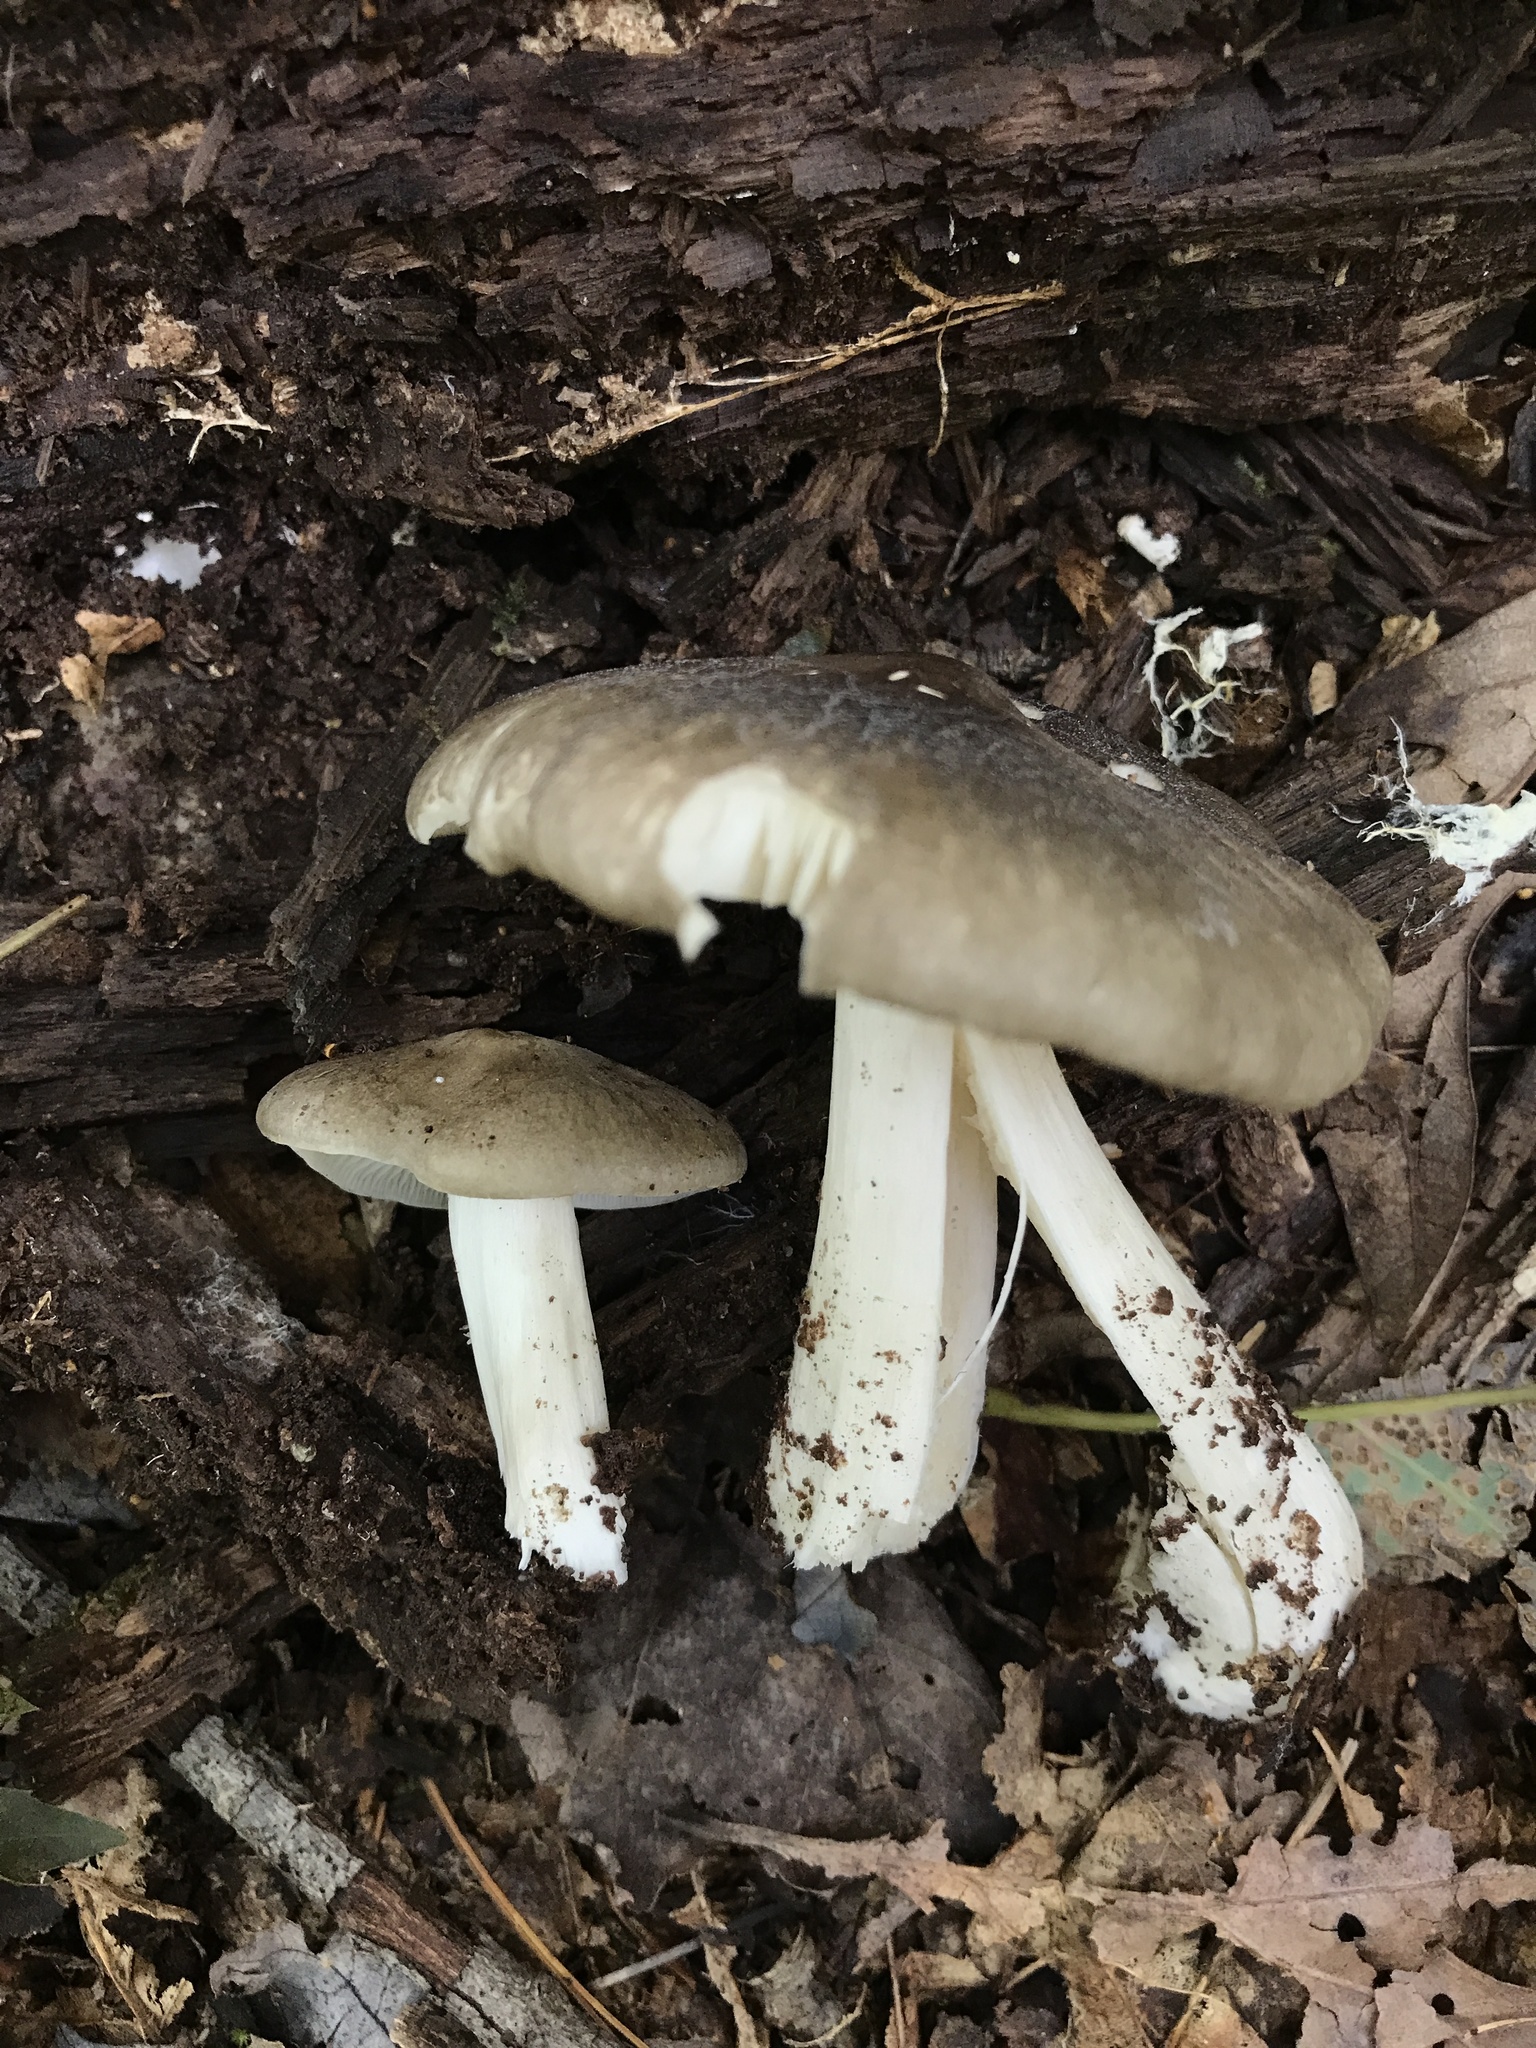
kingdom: Fungi
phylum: Basidiomycota
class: Agaricomycetes
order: Agaricales
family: Tricholomataceae
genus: Megacollybia
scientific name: Megacollybia rodmanii
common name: Eastern american platterful mushroom
